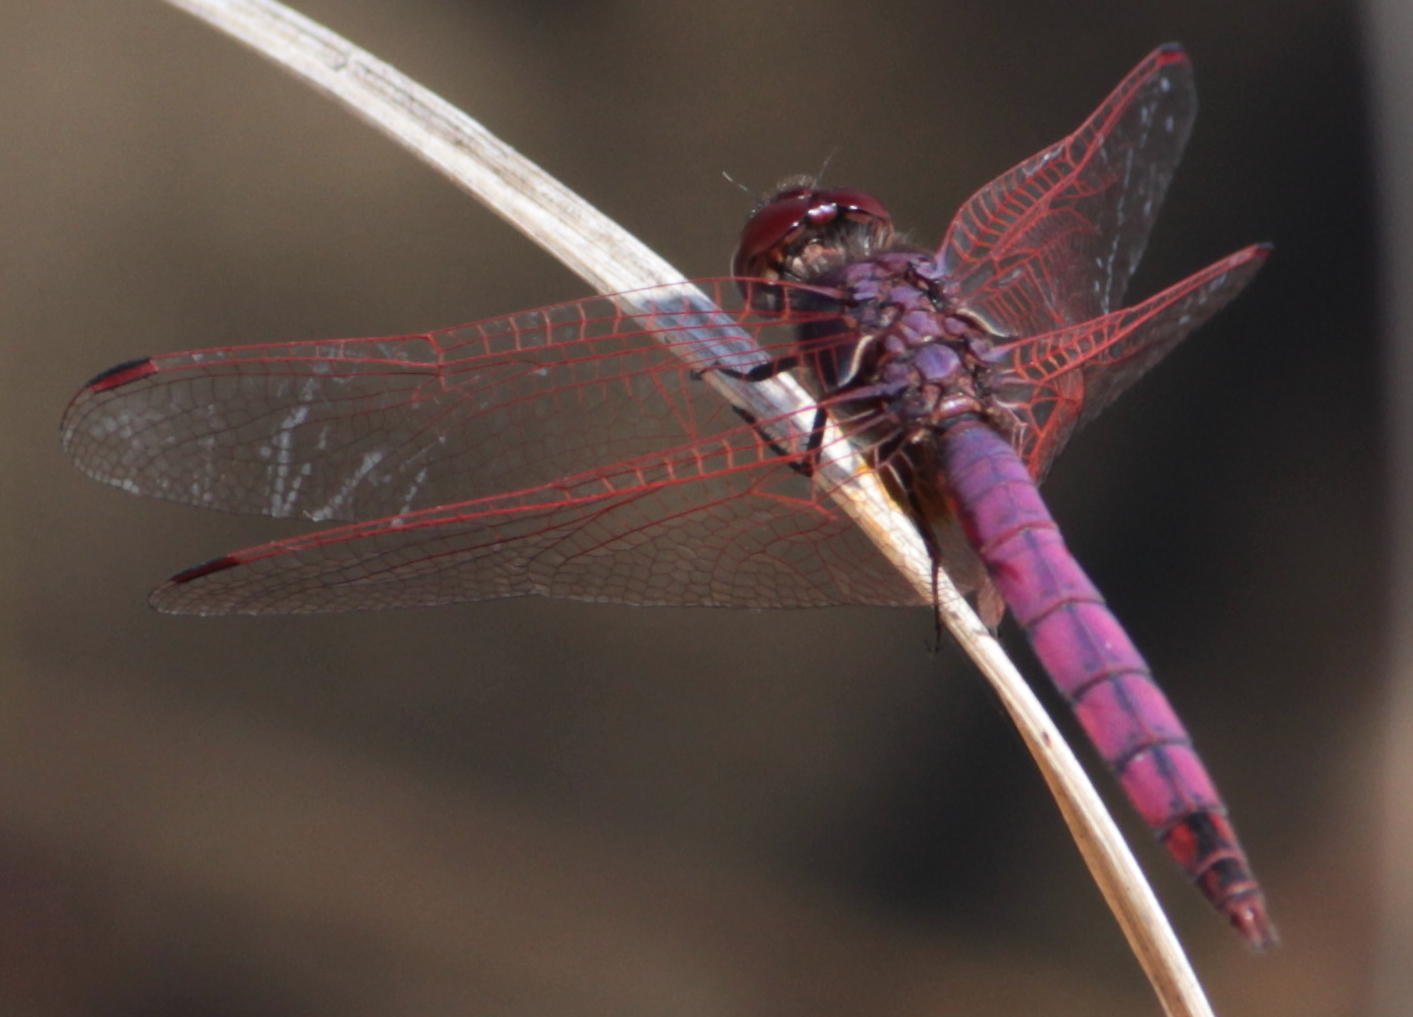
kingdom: Animalia
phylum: Arthropoda
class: Insecta
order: Odonata
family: Libellulidae
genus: Trithemis
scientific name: Trithemis annulata
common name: Violet dropwing
